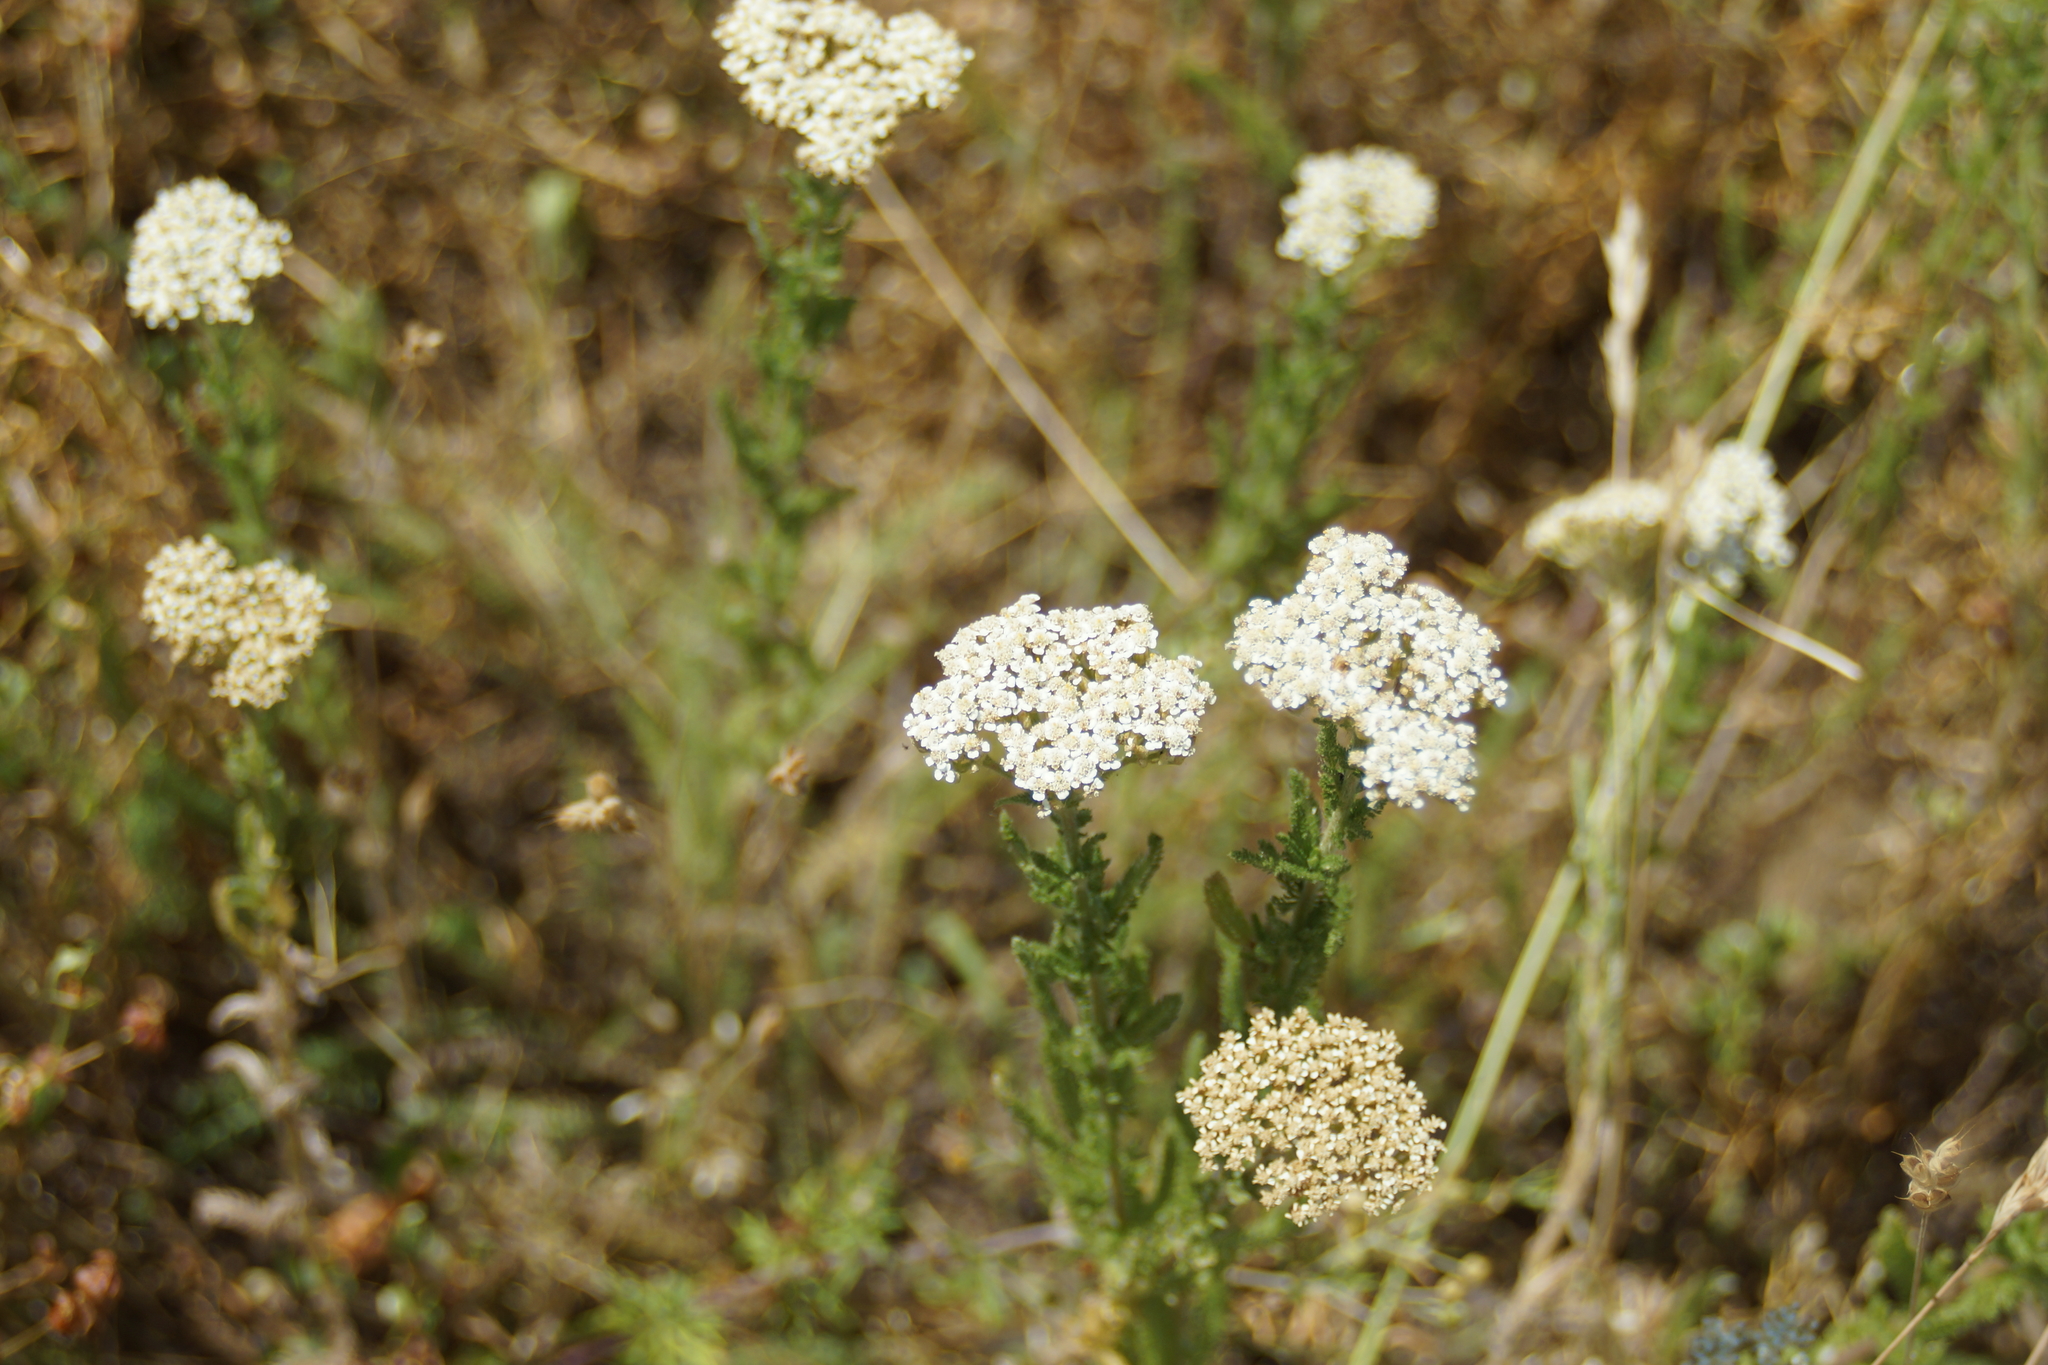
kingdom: Plantae
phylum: Tracheophyta
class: Magnoliopsida
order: Asterales
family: Asteraceae
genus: Achillea
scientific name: Achillea millefolium
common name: Yarrow
